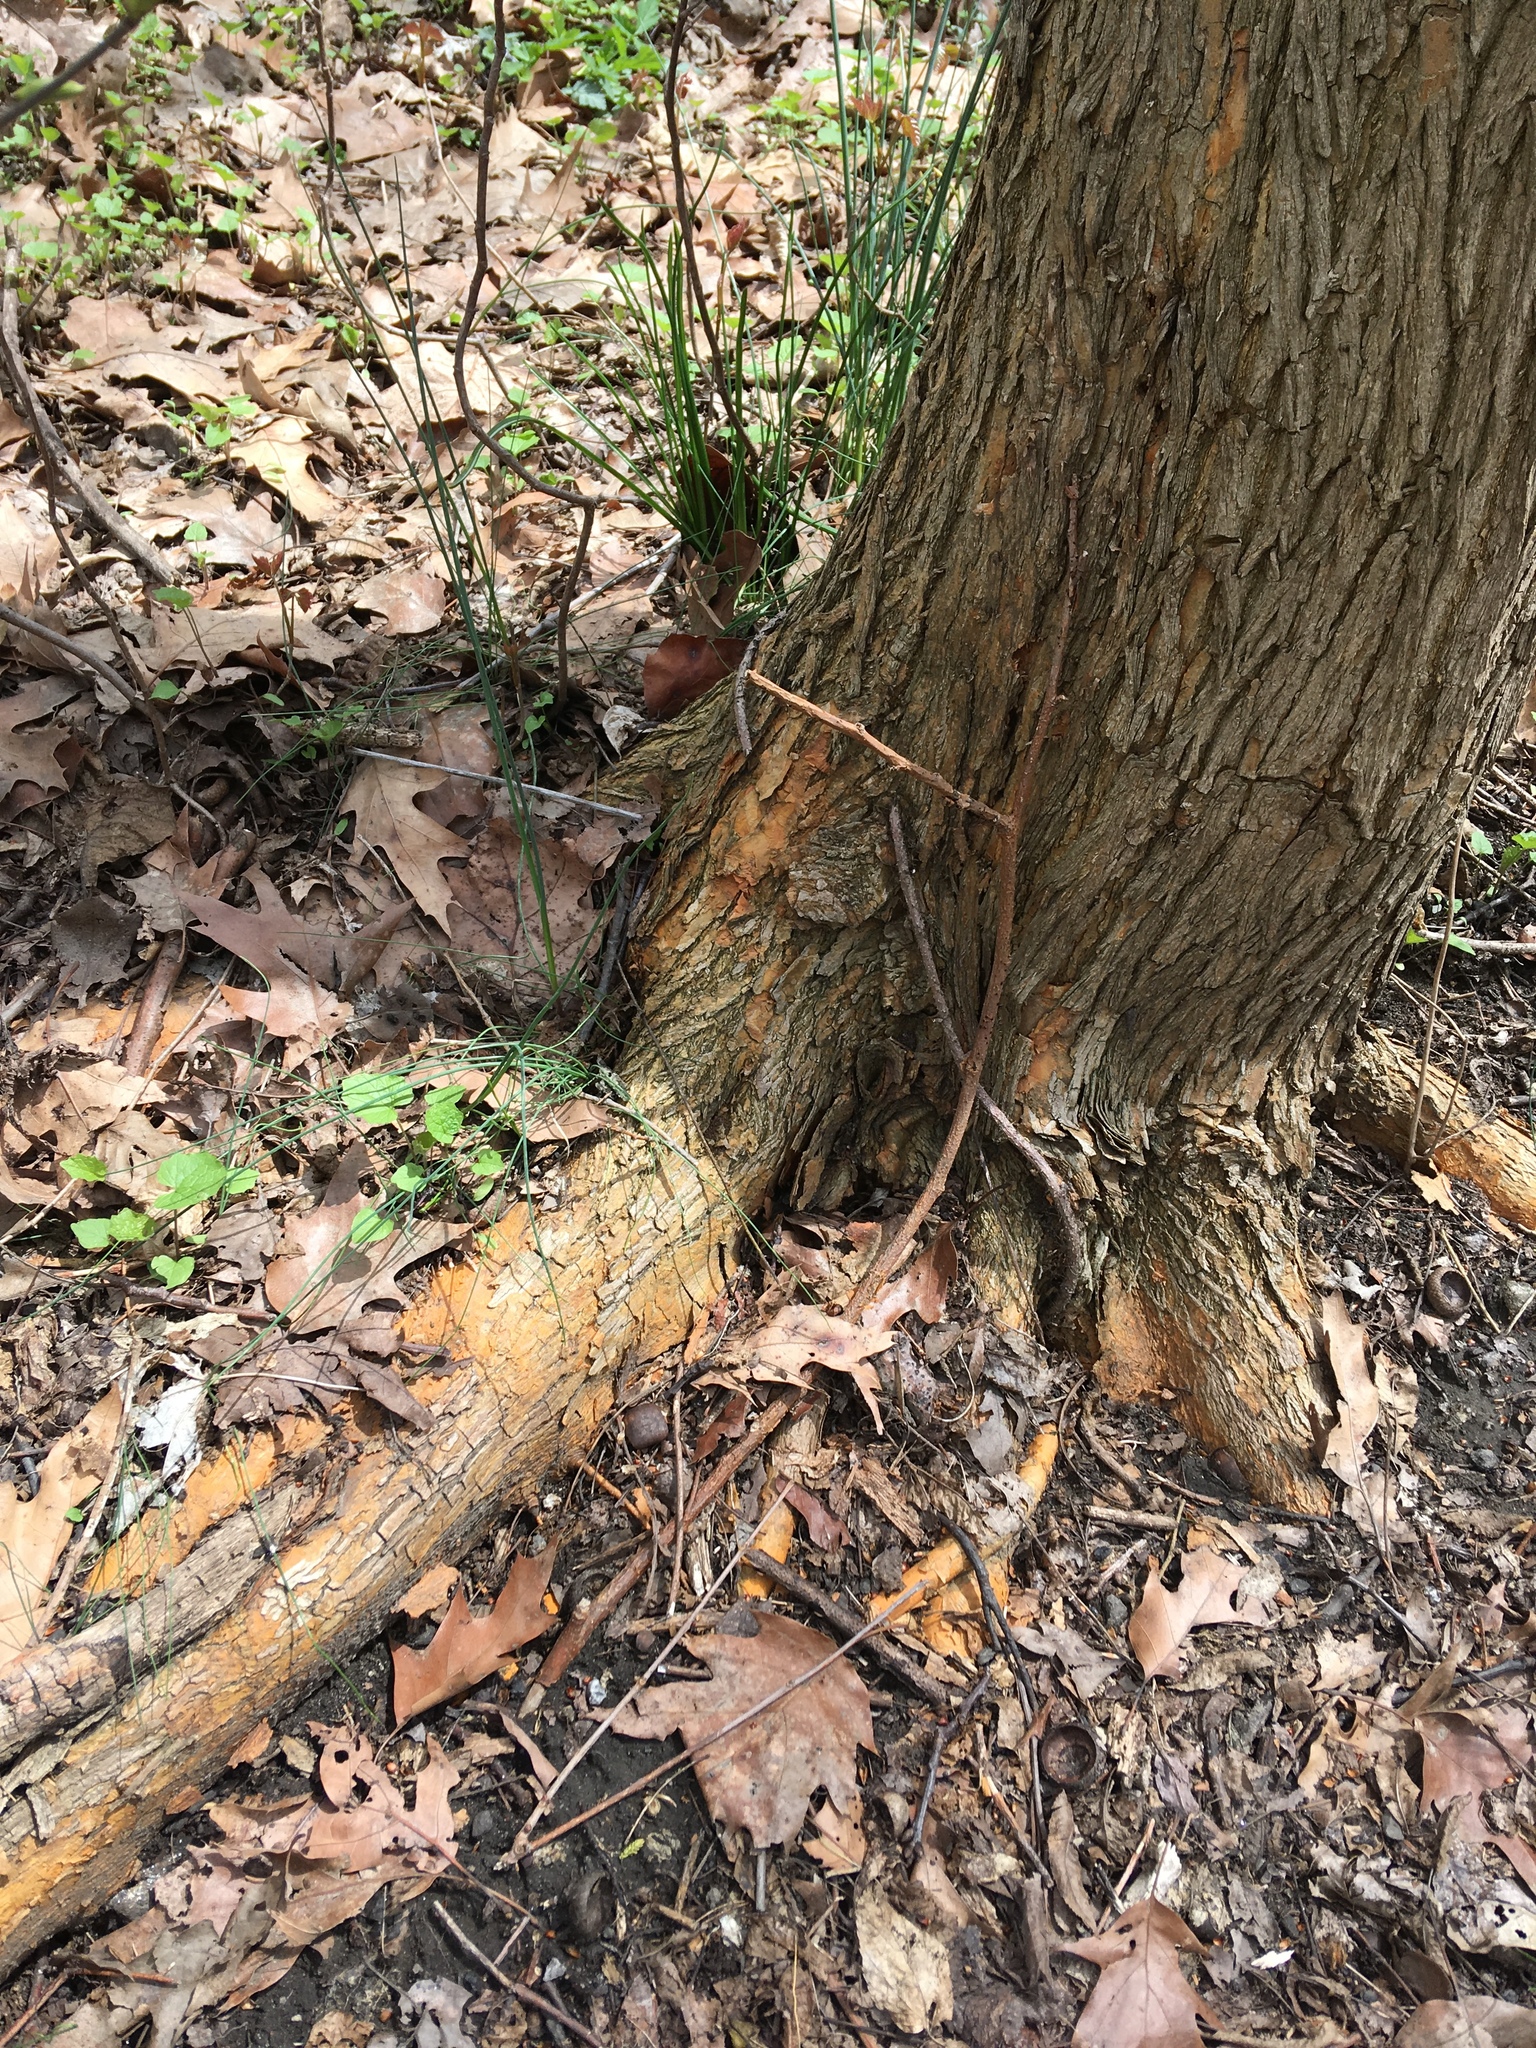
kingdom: Plantae
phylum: Tracheophyta
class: Magnoliopsida
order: Rosales
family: Moraceae
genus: Morus
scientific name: Morus alba
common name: White mulberry
